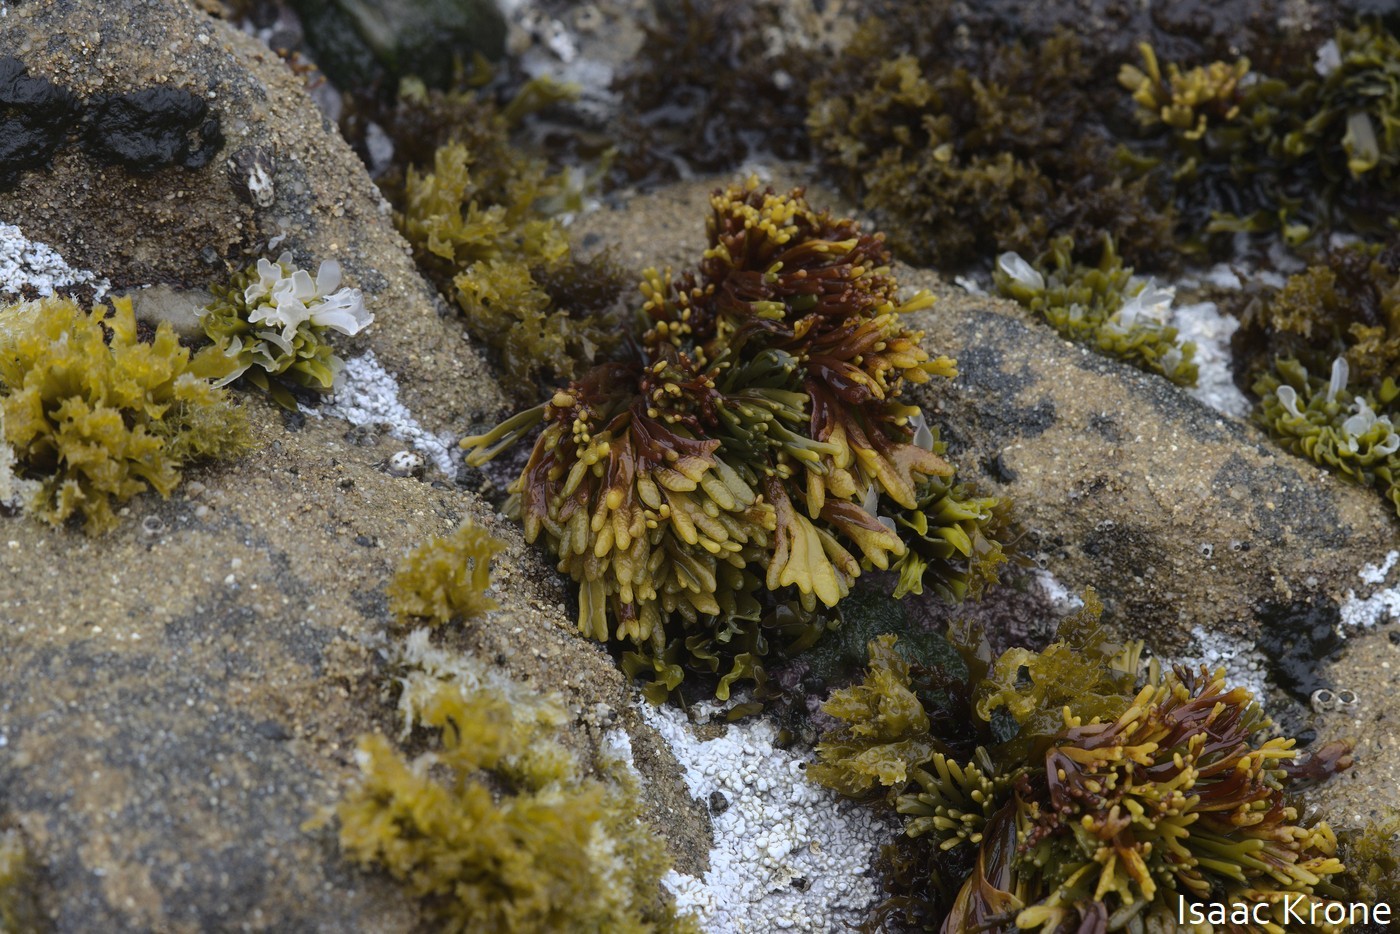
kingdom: Chromista
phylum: Ochrophyta
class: Phaeophyceae
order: Fucales
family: Fucaceae
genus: Pelvetiopsis
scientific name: Pelvetiopsis limitata
